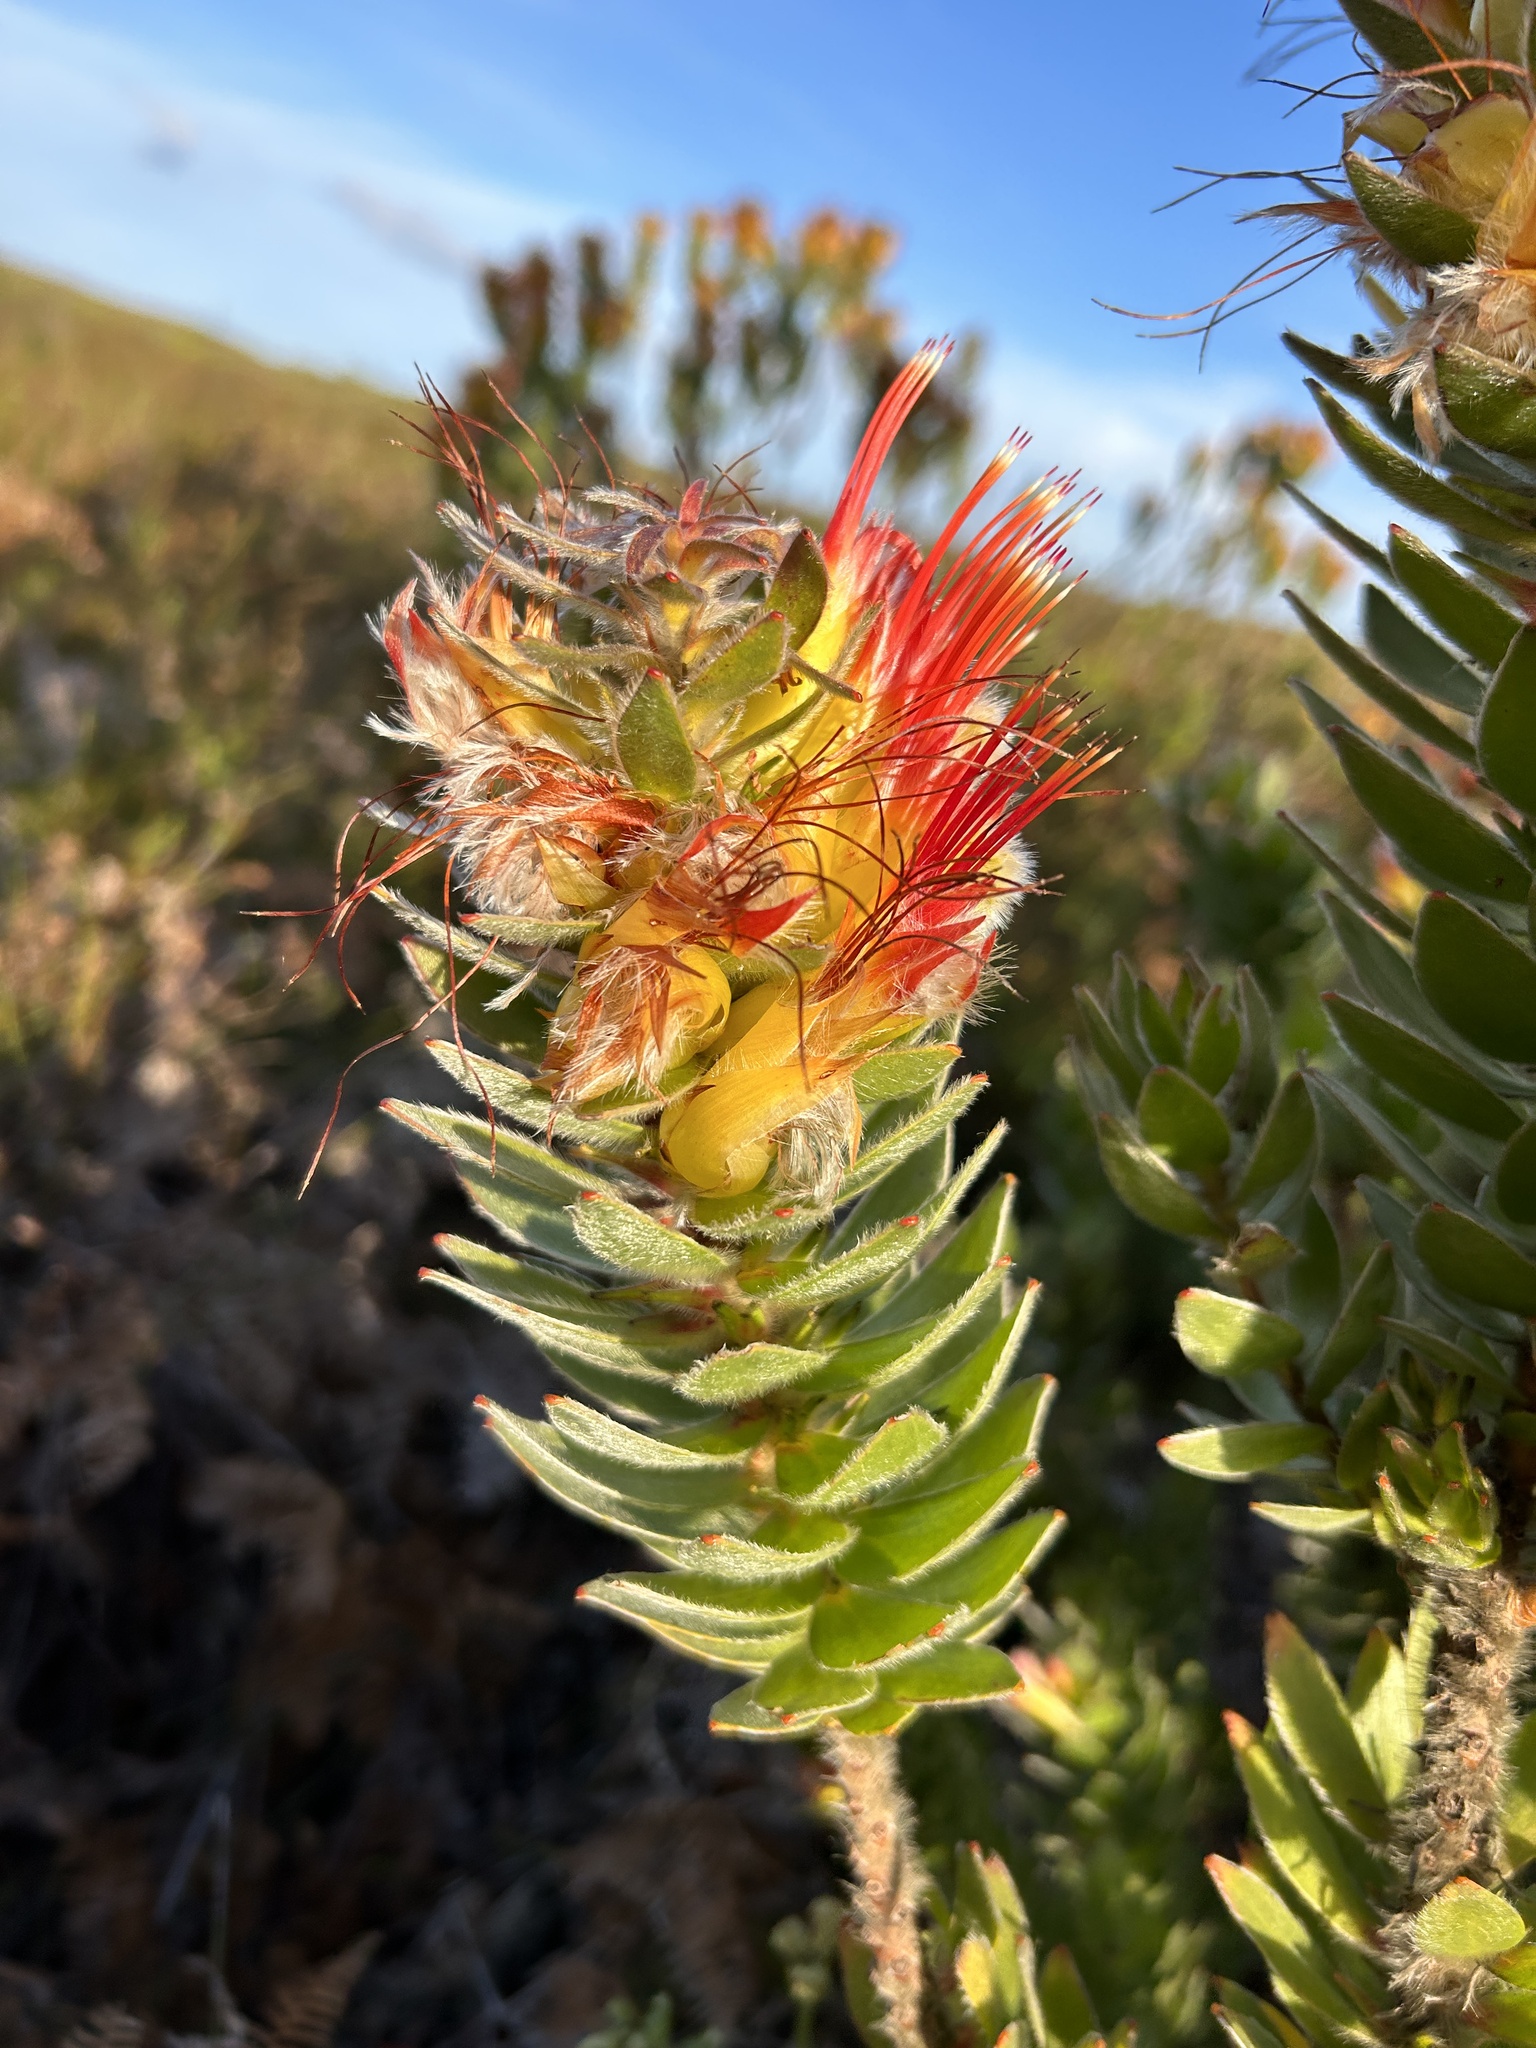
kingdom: Plantae
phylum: Tracheophyta
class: Magnoliopsida
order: Proteales
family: Proteaceae
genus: Mimetes
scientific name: Mimetes hirtus
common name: Marsh pagoda
